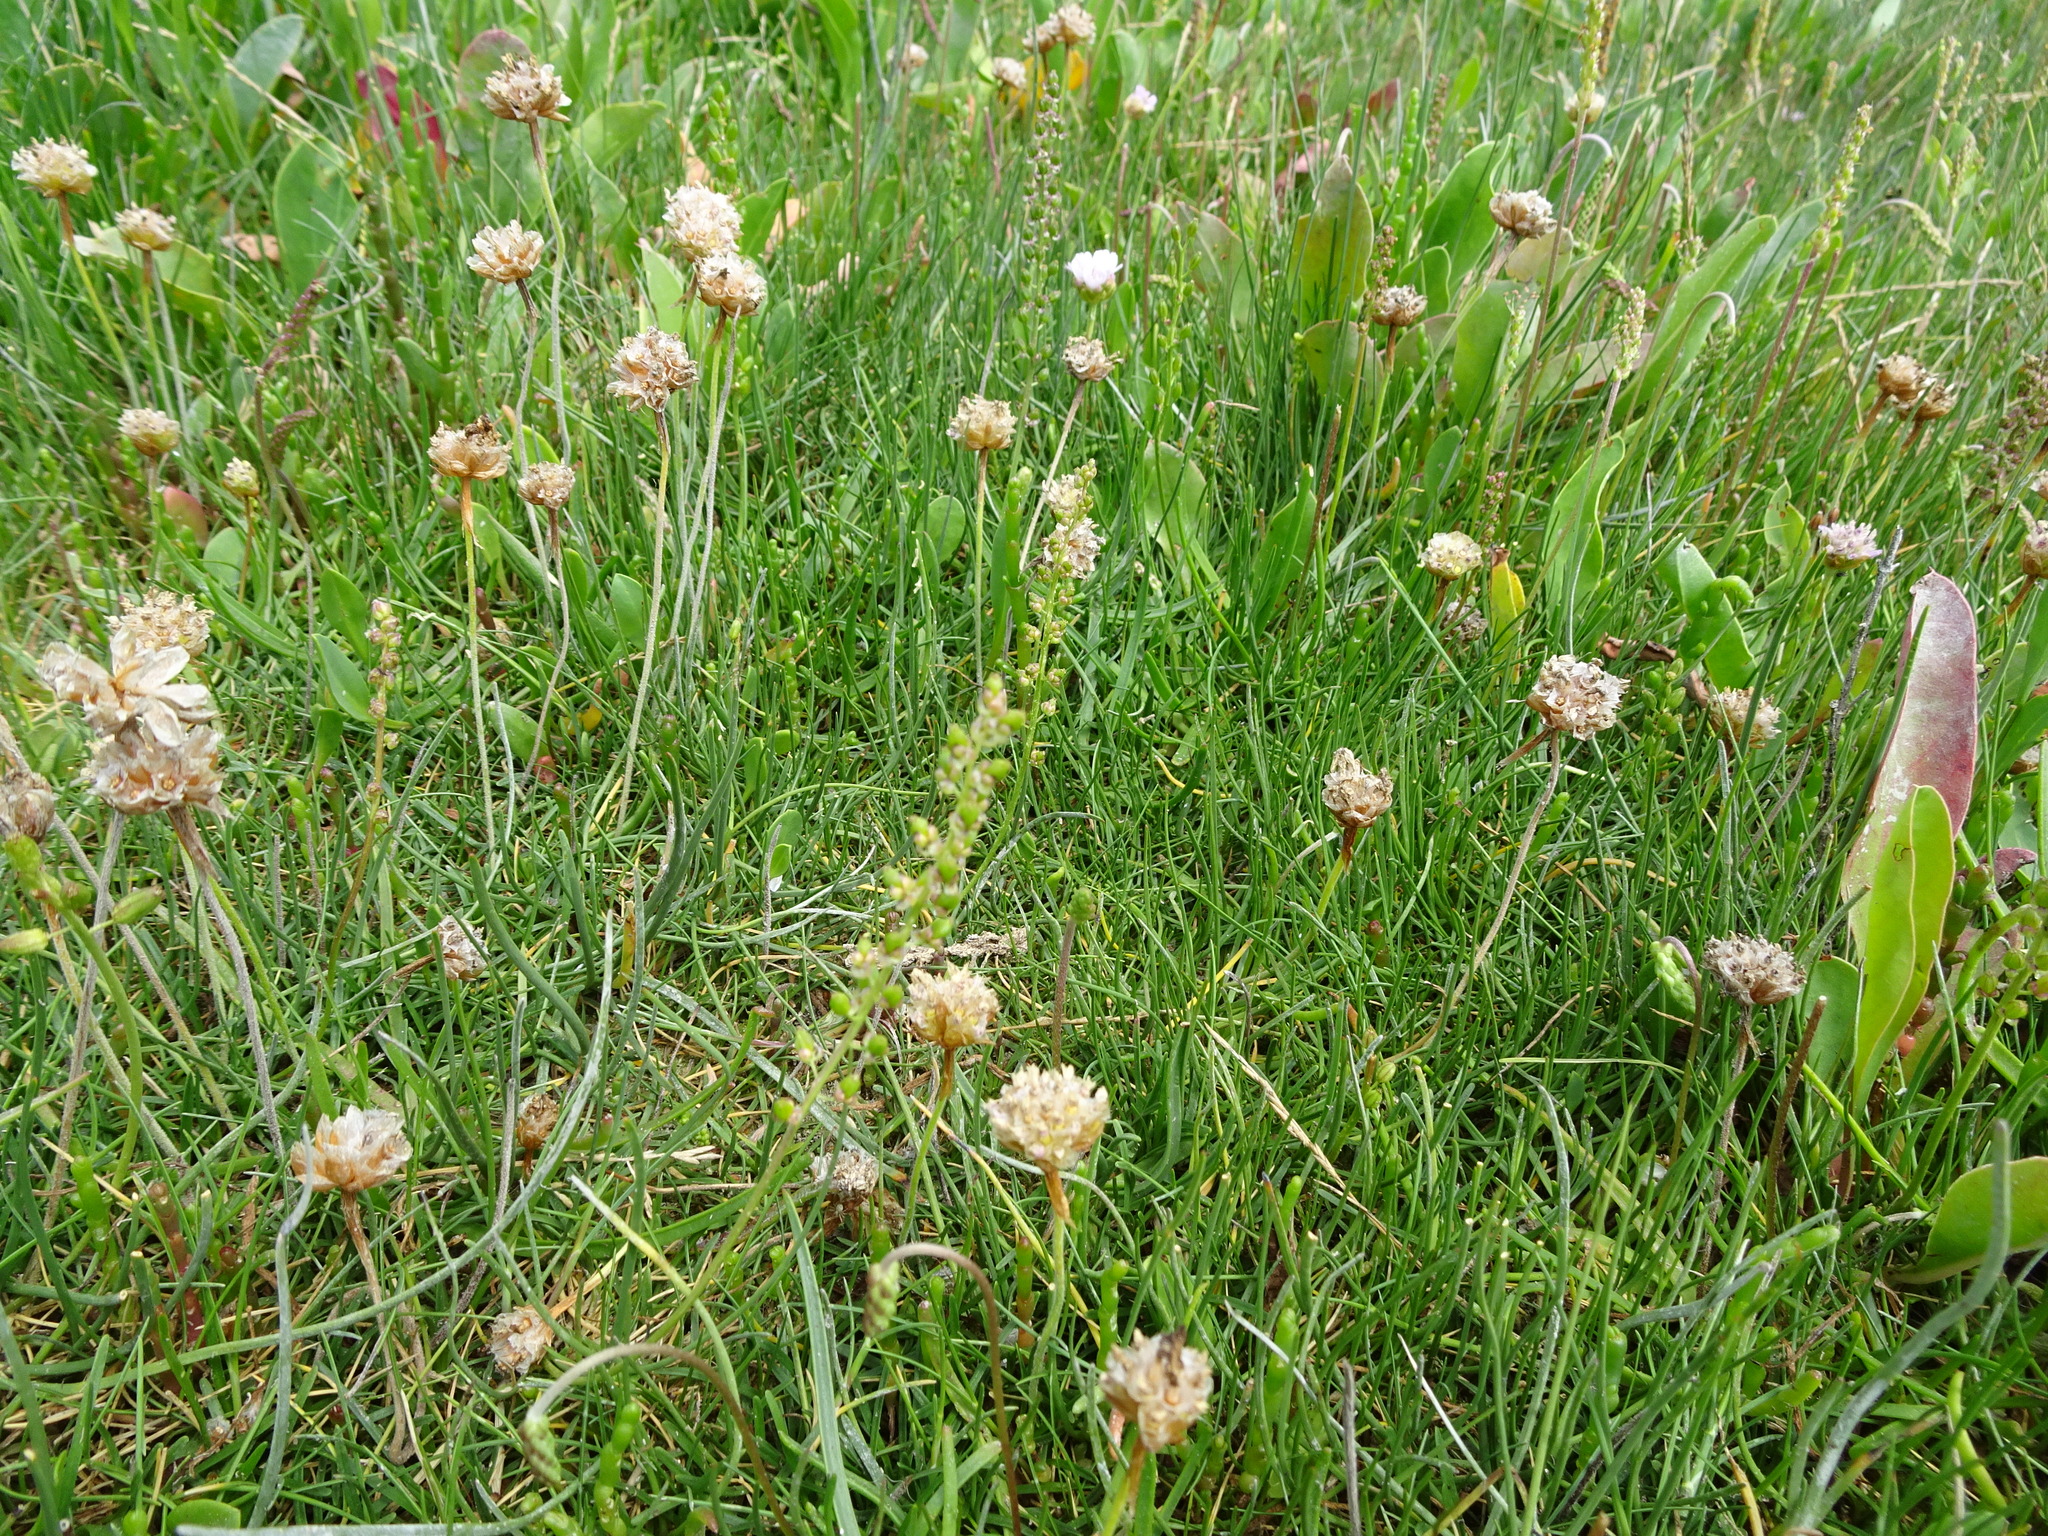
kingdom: Plantae
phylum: Tracheophyta
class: Magnoliopsida
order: Caryophyllales
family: Plumbaginaceae
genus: Armeria
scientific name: Armeria maritima
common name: Thrift
